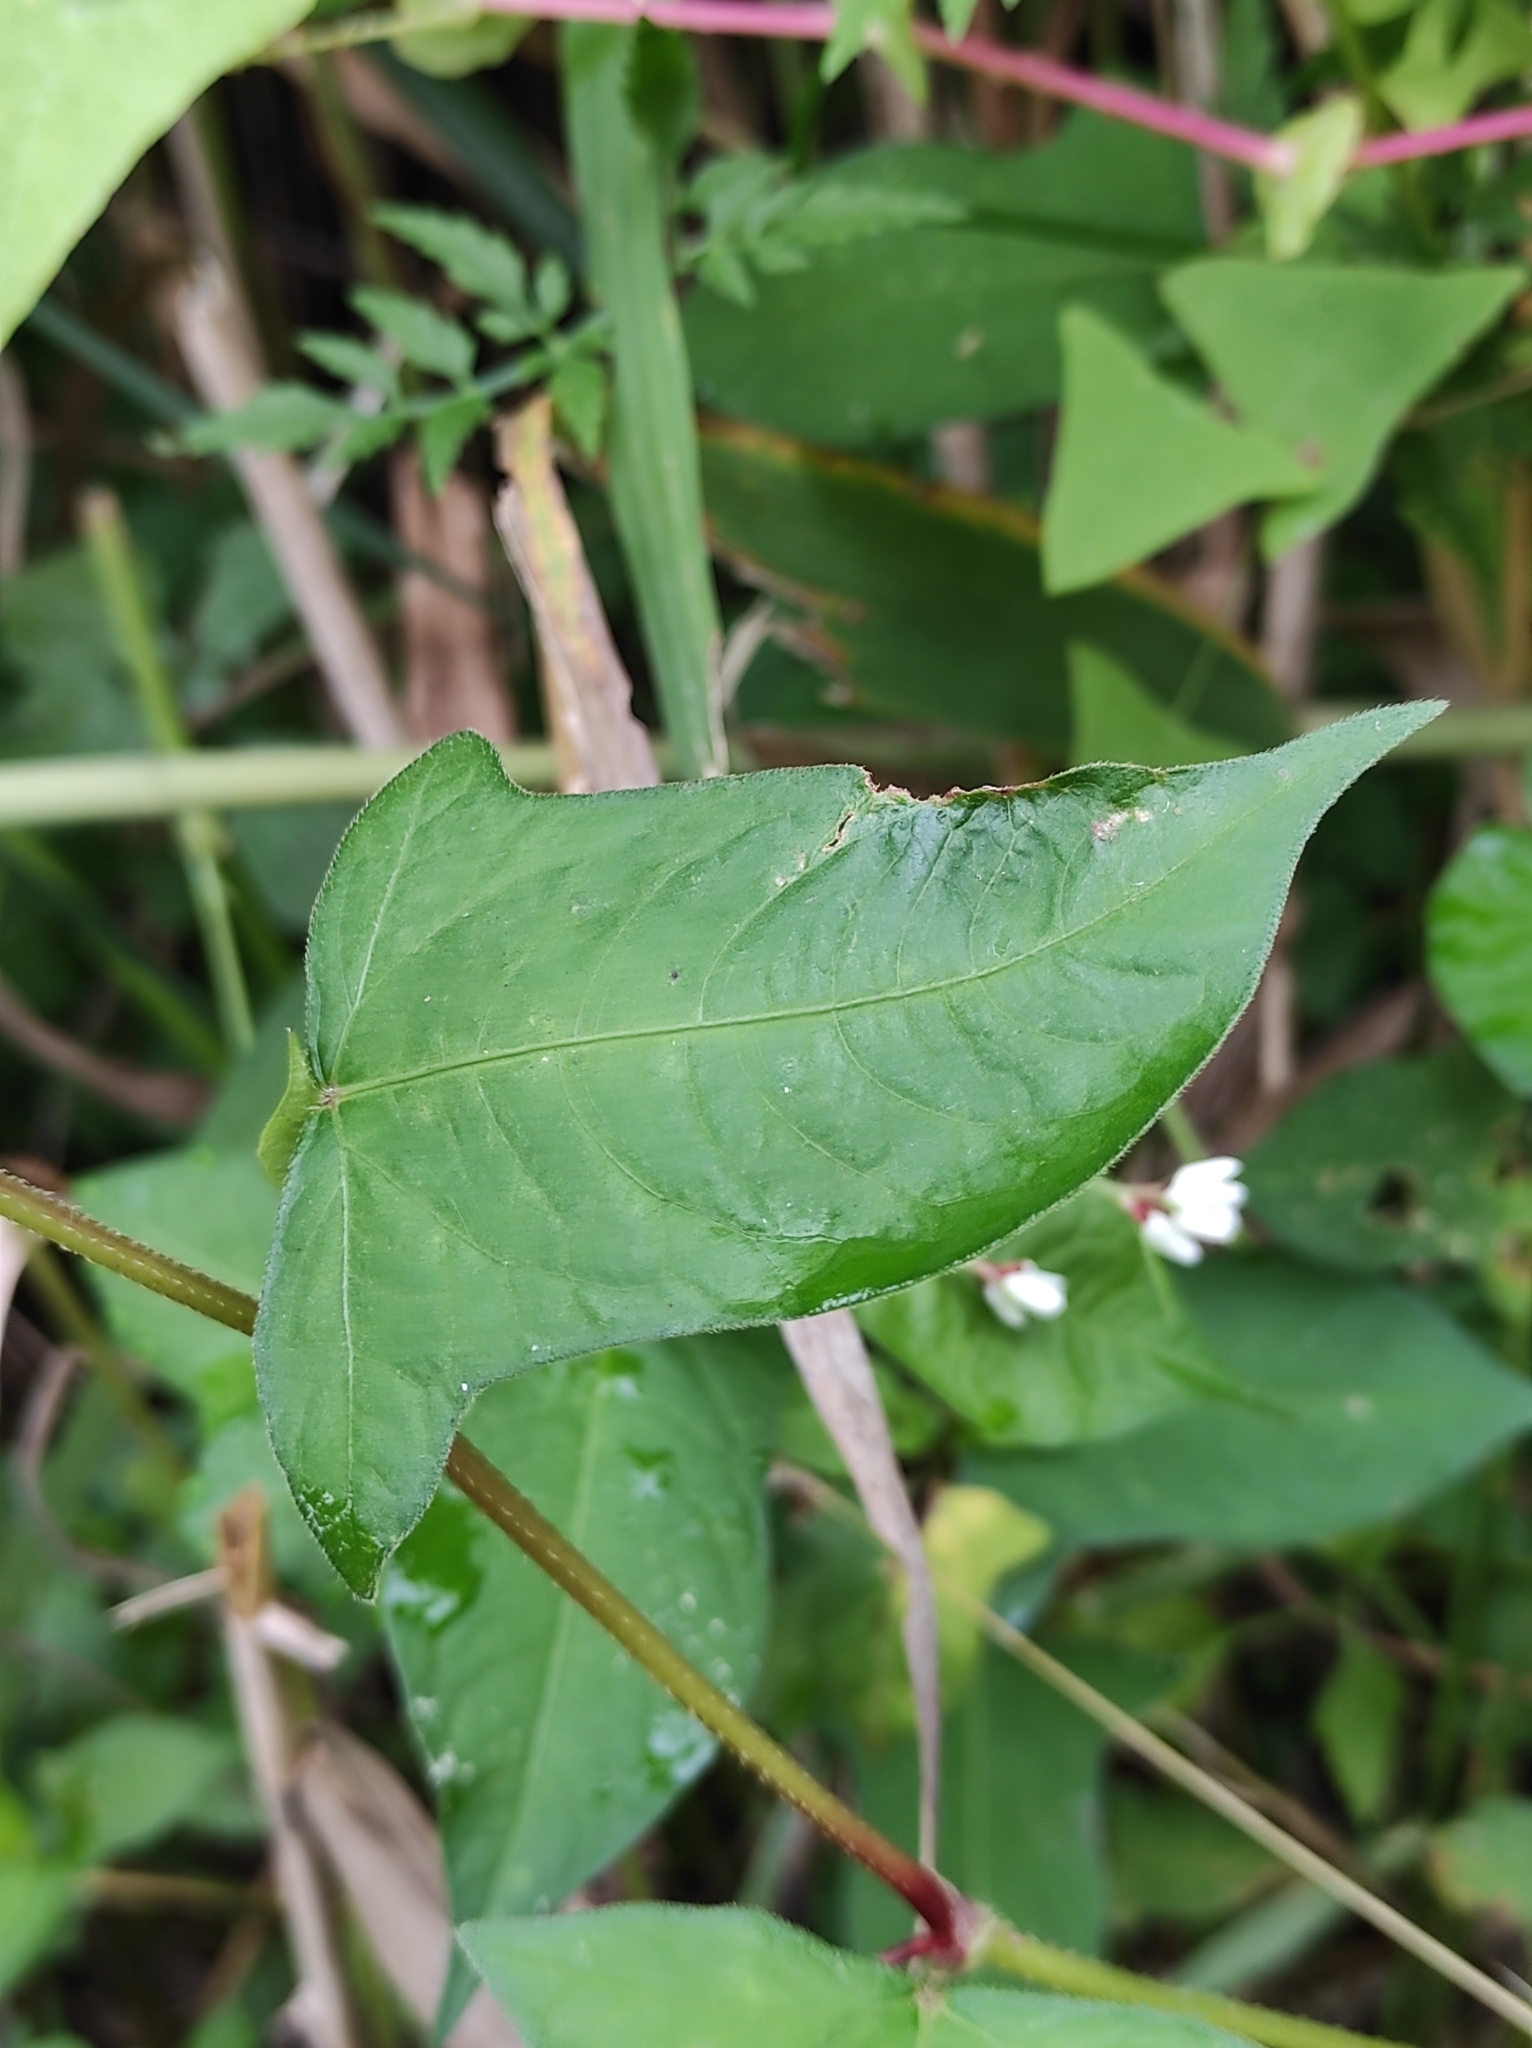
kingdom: Plantae
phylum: Tracheophyta
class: Magnoliopsida
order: Caryophyllales
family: Polygonaceae
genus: Persicaria
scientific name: Persicaria thunbergii
